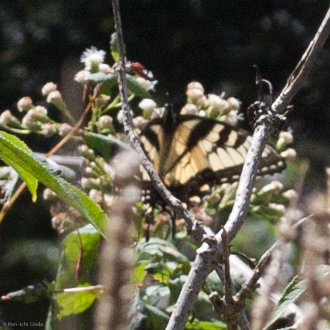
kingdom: Animalia
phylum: Arthropoda
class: Insecta
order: Lepidoptera
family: Papilionidae
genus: Papilio
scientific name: Papilio glaucus
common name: Tiger swallowtail
